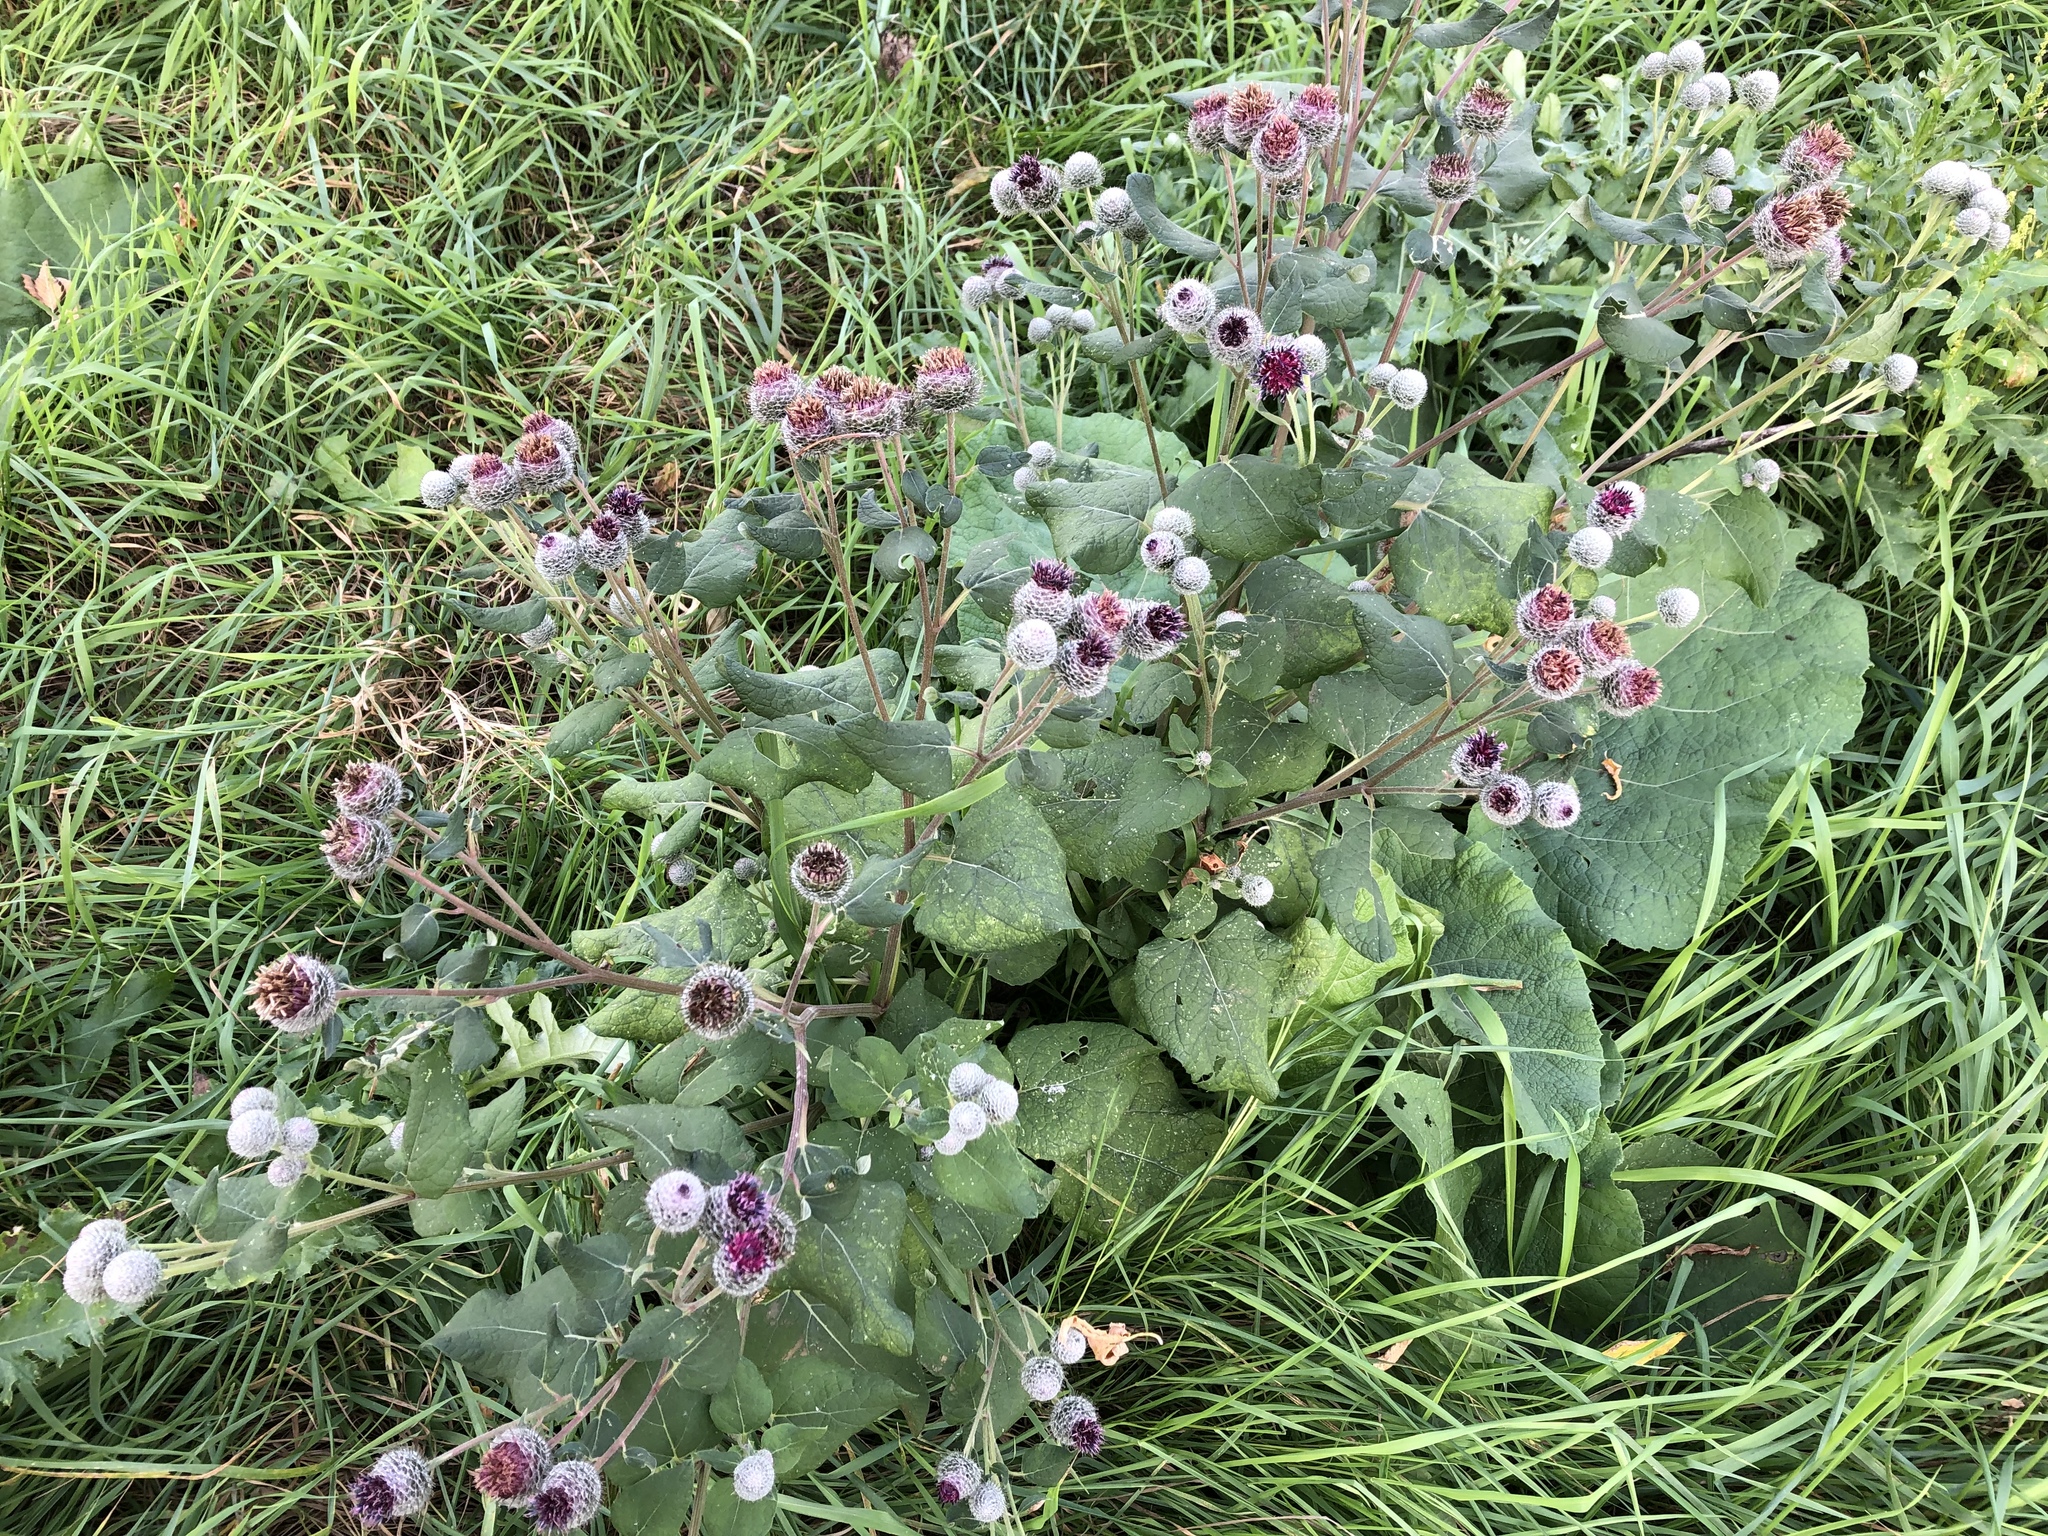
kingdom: Plantae
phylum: Tracheophyta
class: Magnoliopsida
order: Asterales
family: Asteraceae
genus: Arctium
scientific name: Arctium tomentosum
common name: Woolly burdock
